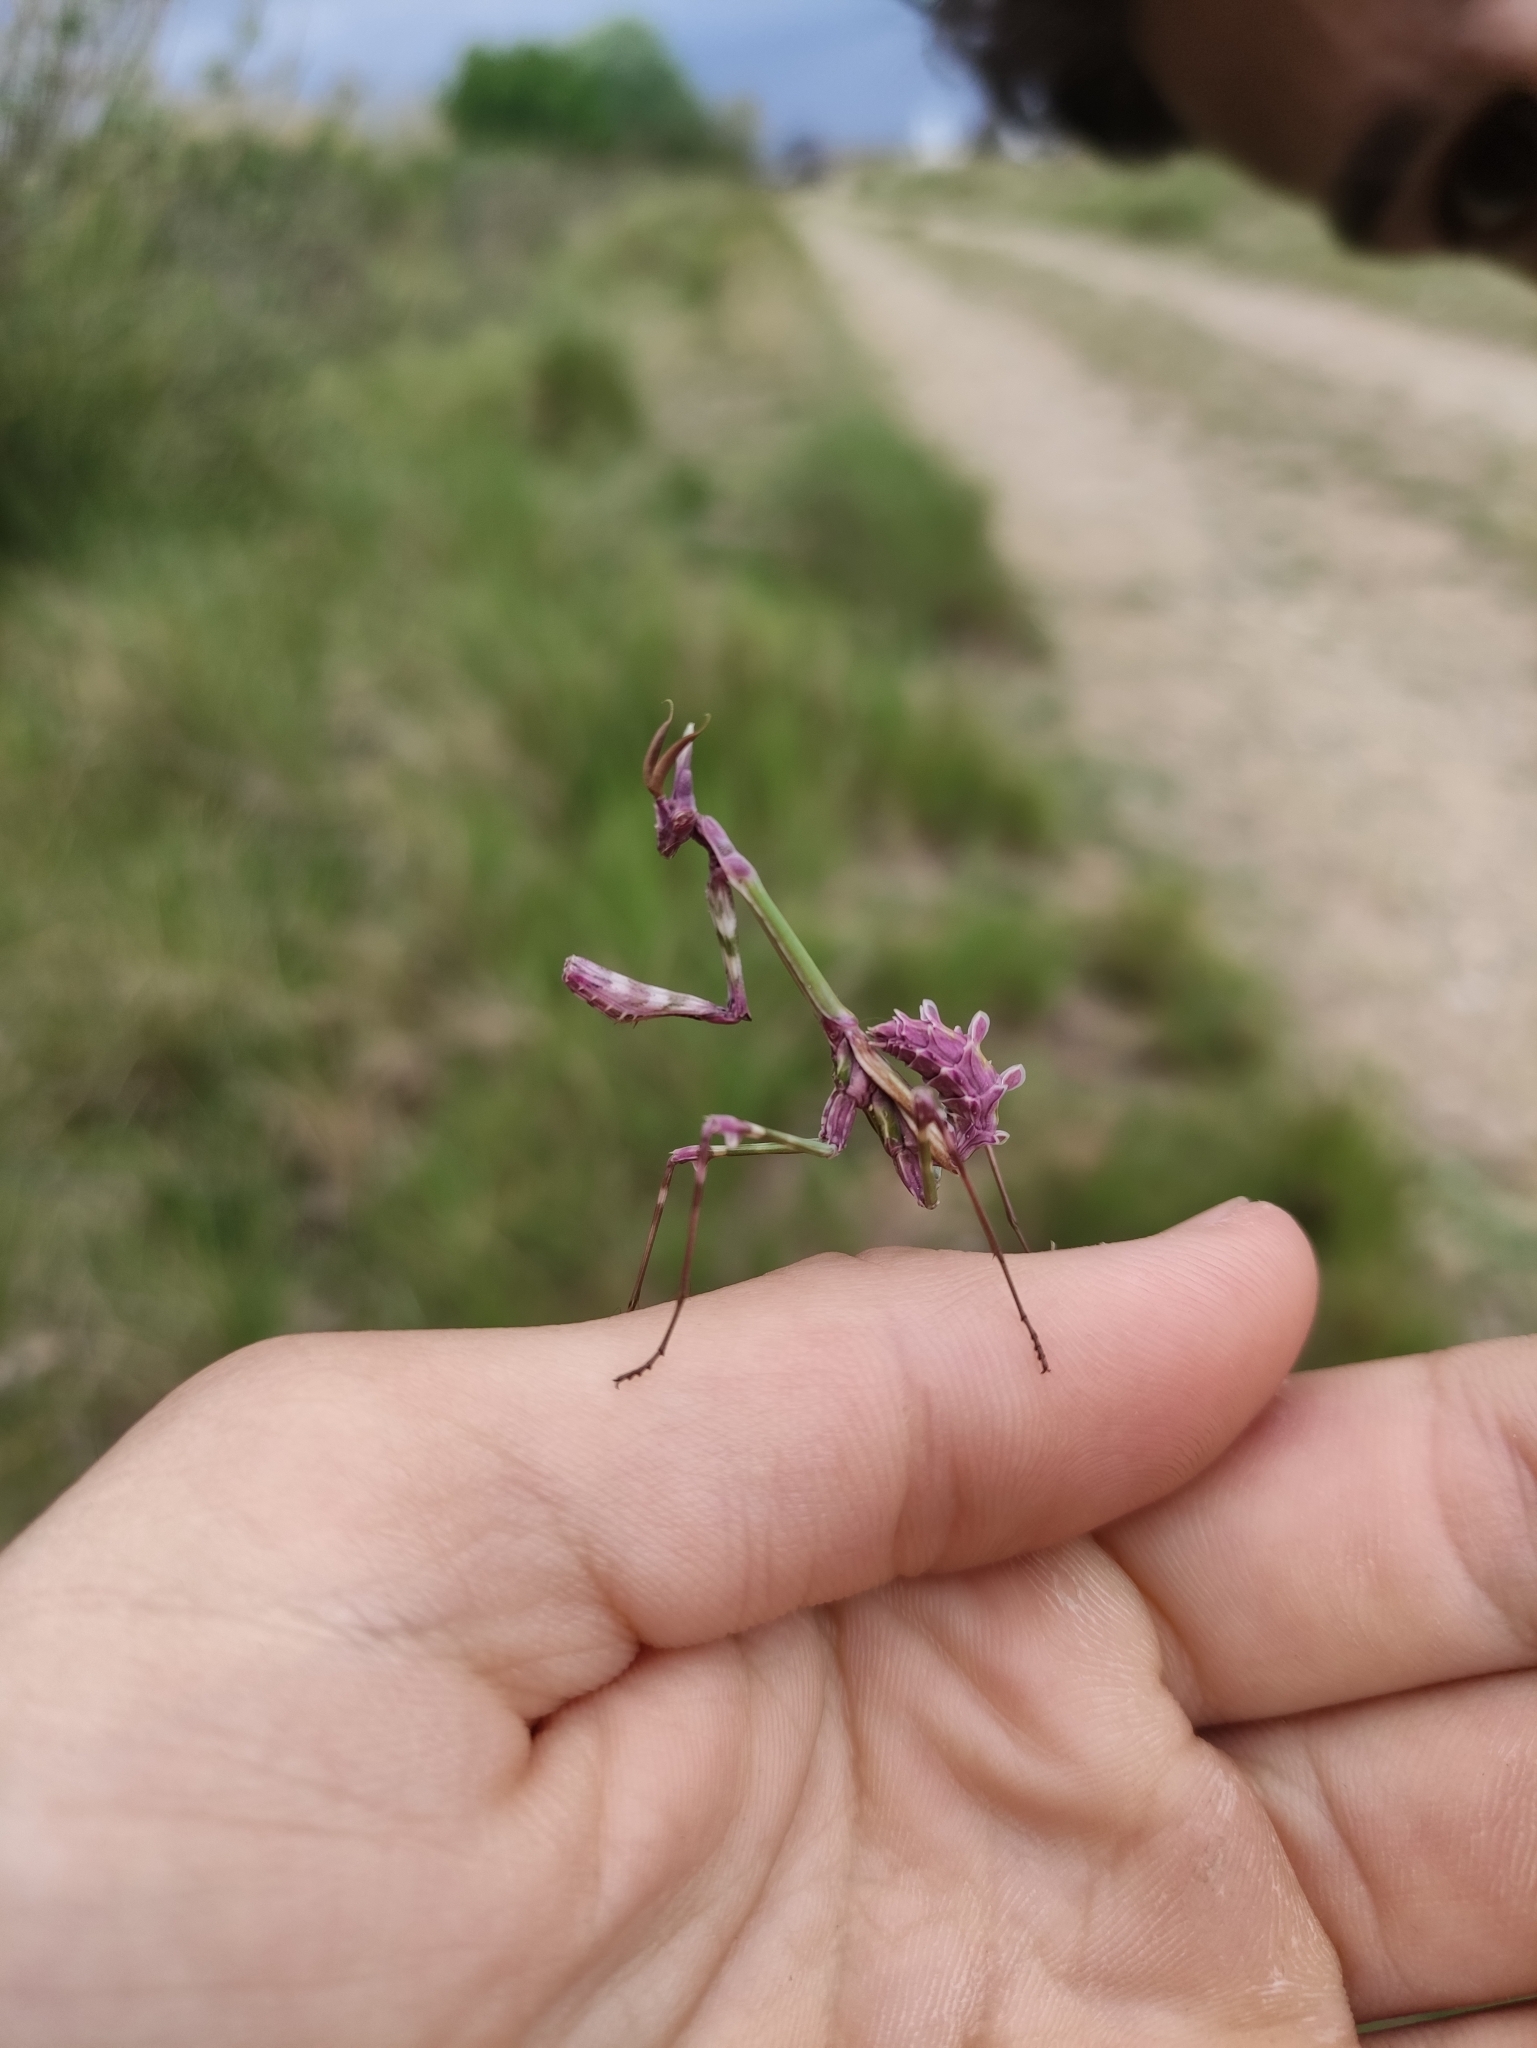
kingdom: Animalia
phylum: Arthropoda
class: Insecta
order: Mantodea
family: Empusidae
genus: Empusa
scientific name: Empusa pennata
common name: Conehead mantis
